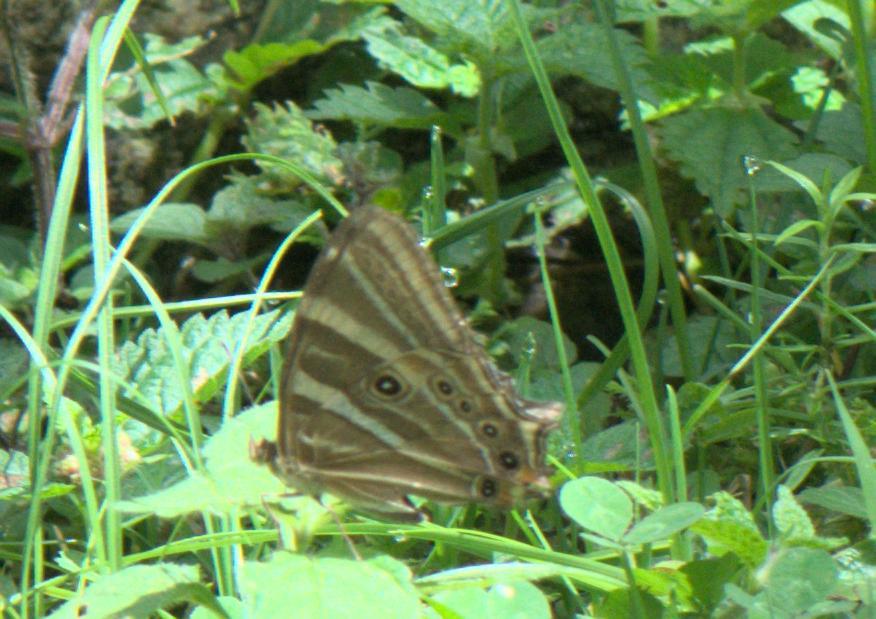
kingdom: Animalia
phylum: Arthropoda
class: Insecta
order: Lepidoptera
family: Nymphalidae
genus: Lethe
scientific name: Lethe baladeva
